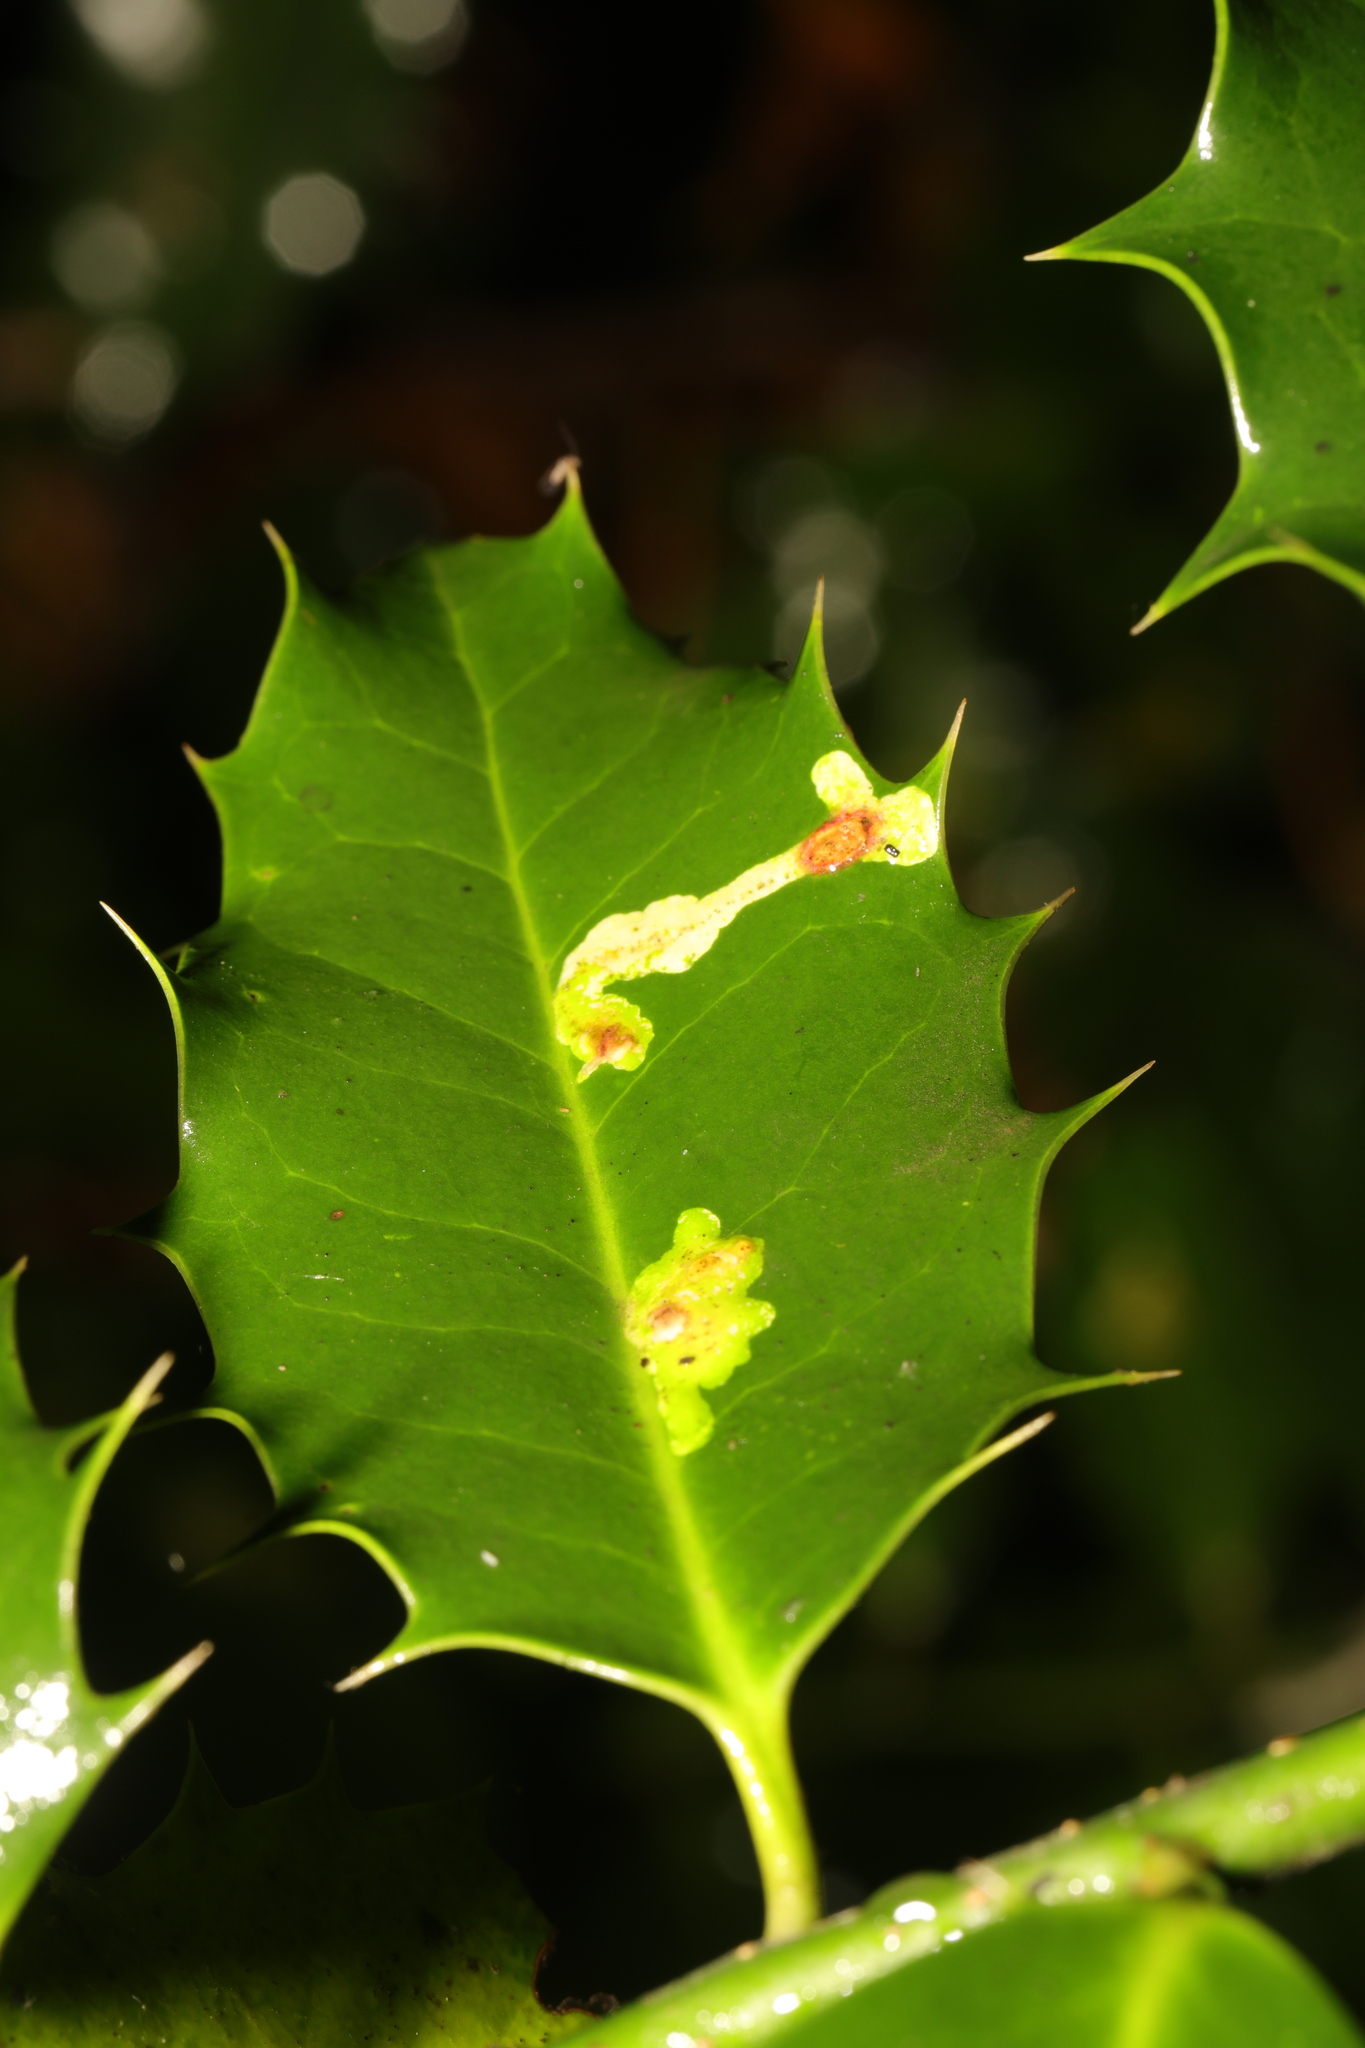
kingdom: Animalia
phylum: Arthropoda
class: Insecta
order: Diptera
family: Agromyzidae
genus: Phytomyza
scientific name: Phytomyza ilicis
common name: Holly leafminer
